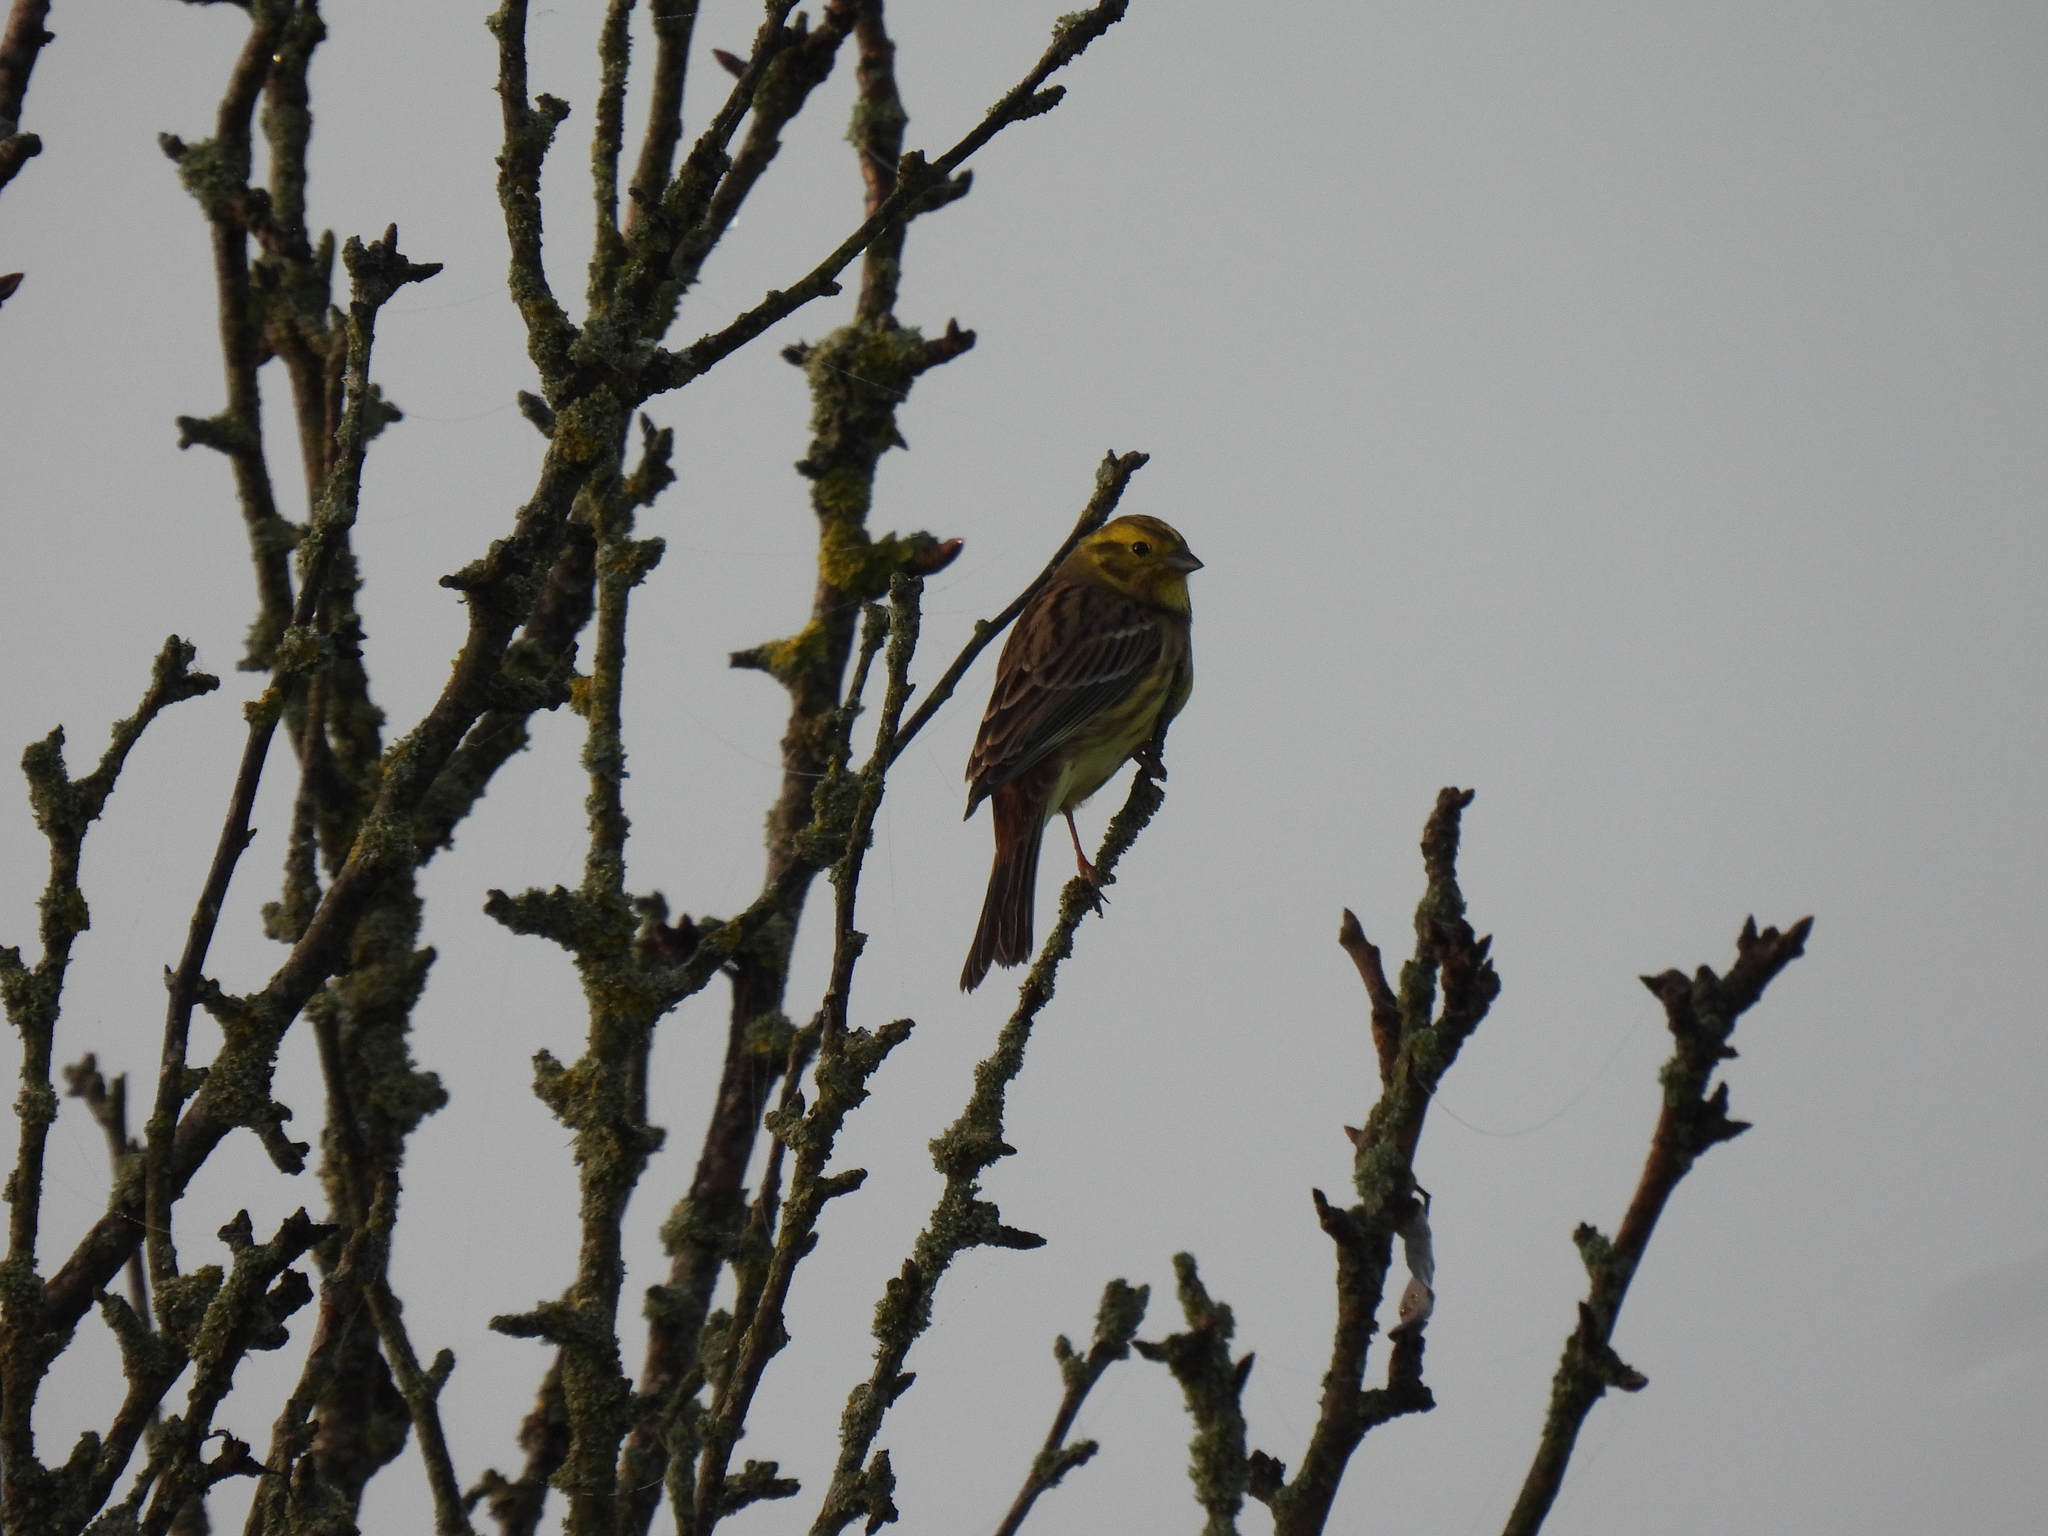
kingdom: Animalia
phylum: Chordata
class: Aves
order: Passeriformes
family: Emberizidae
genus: Emberiza
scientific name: Emberiza citrinella
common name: Yellowhammer
